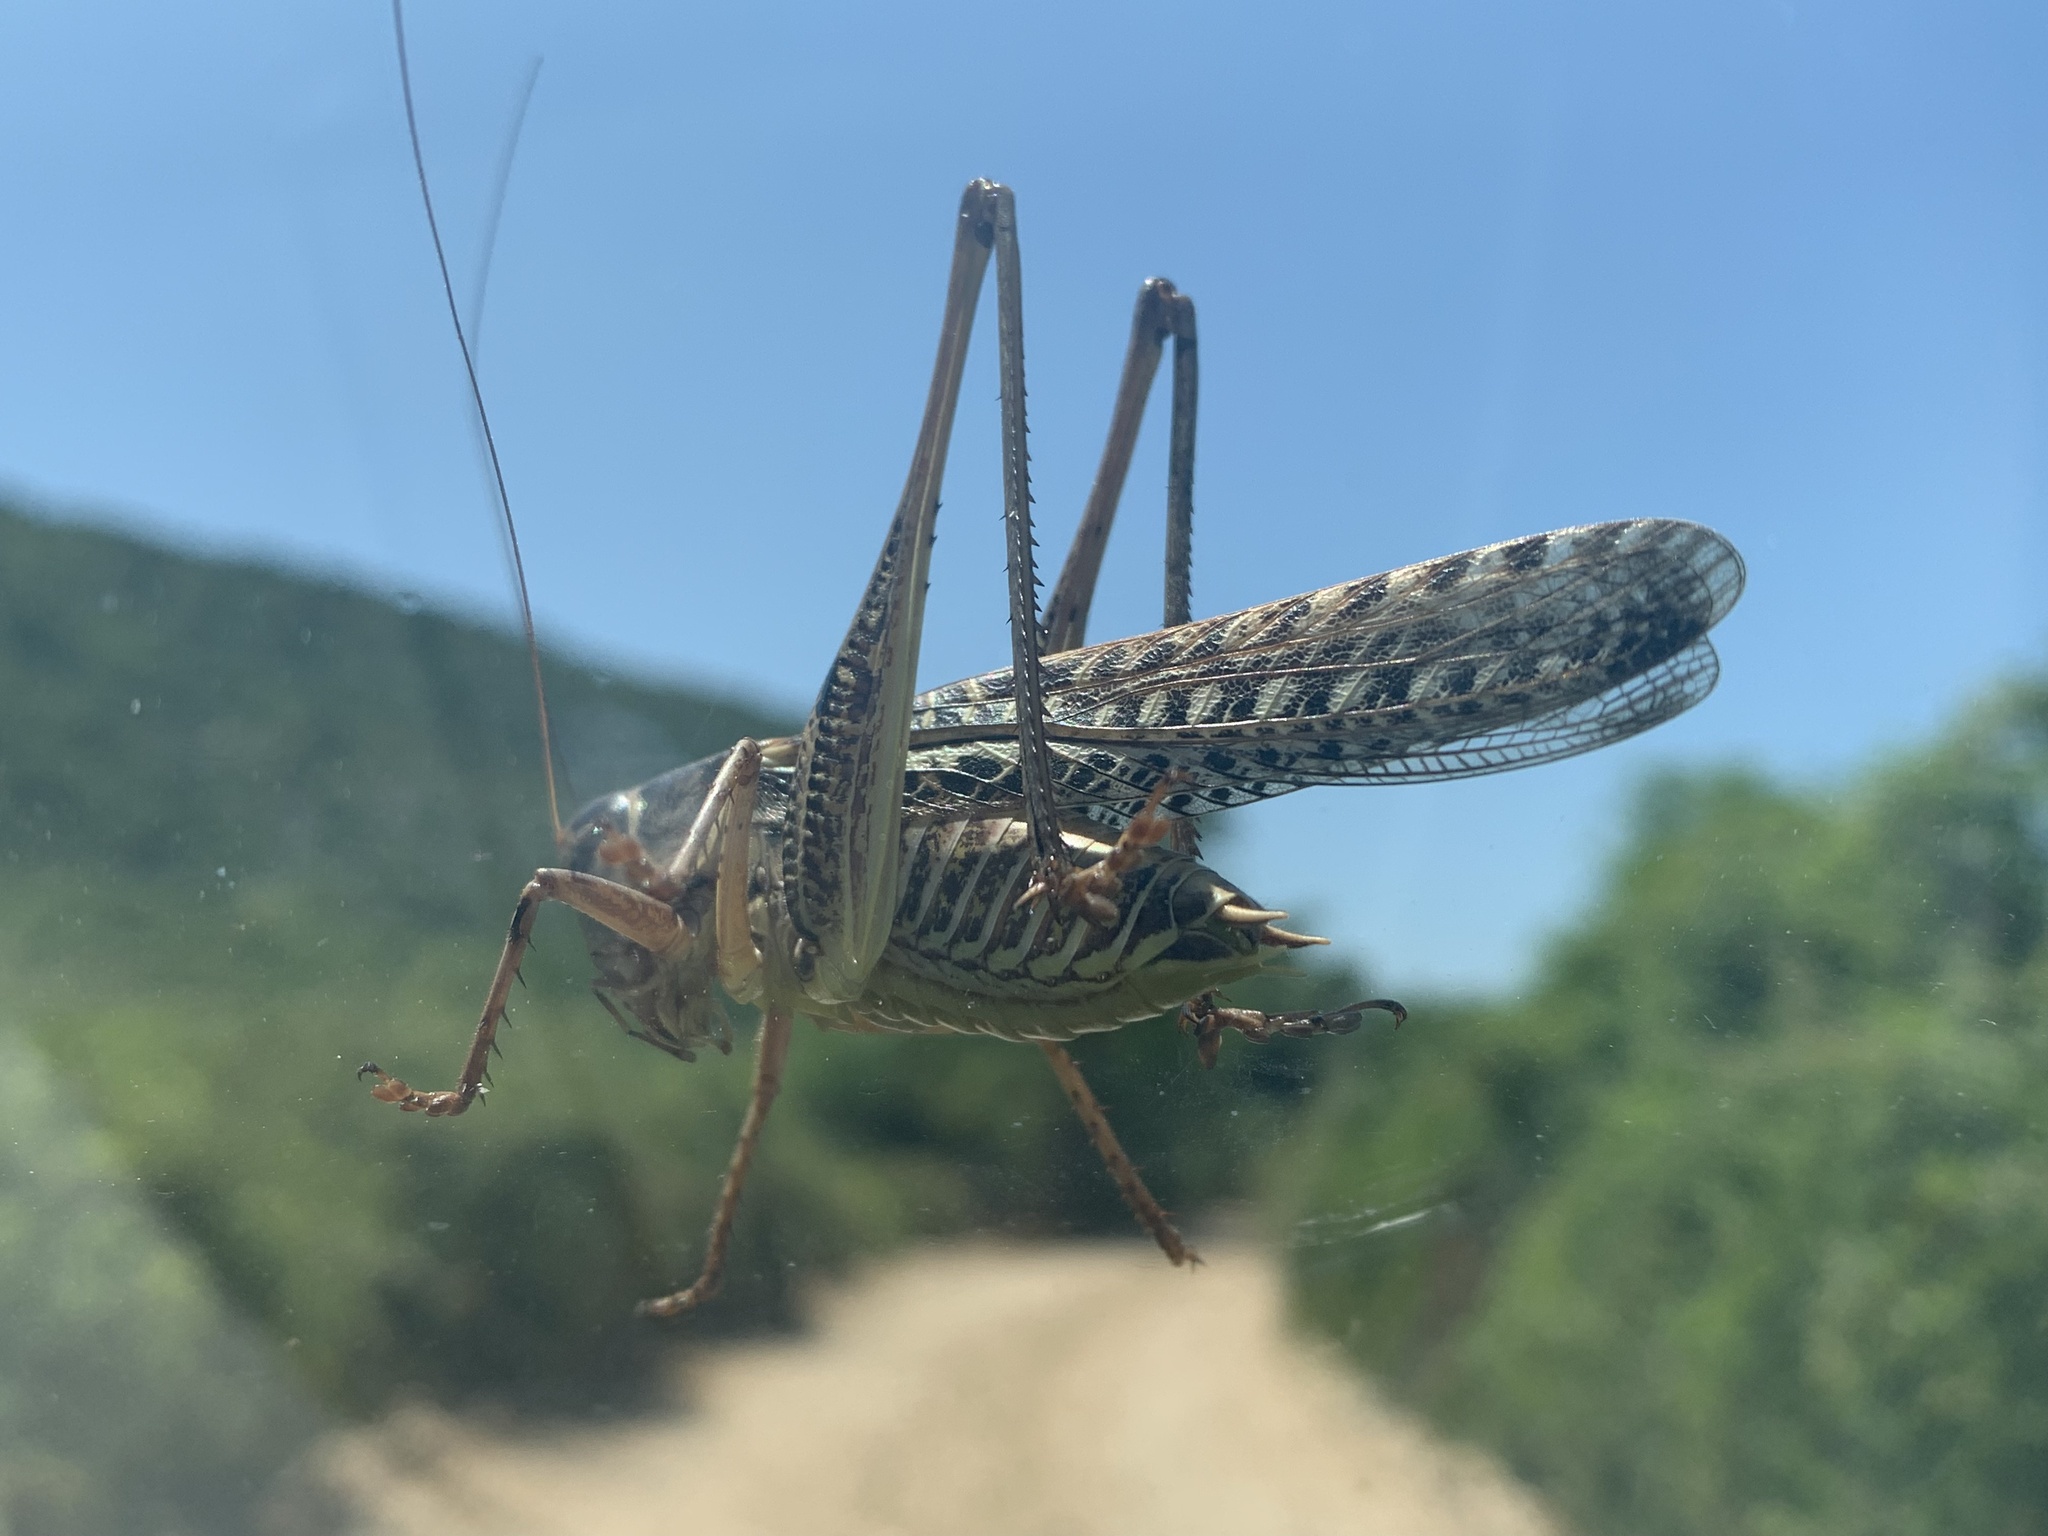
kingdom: Animalia
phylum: Arthropoda
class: Insecta
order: Orthoptera
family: Tettigoniidae
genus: Decticus
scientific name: Decticus albifrons
